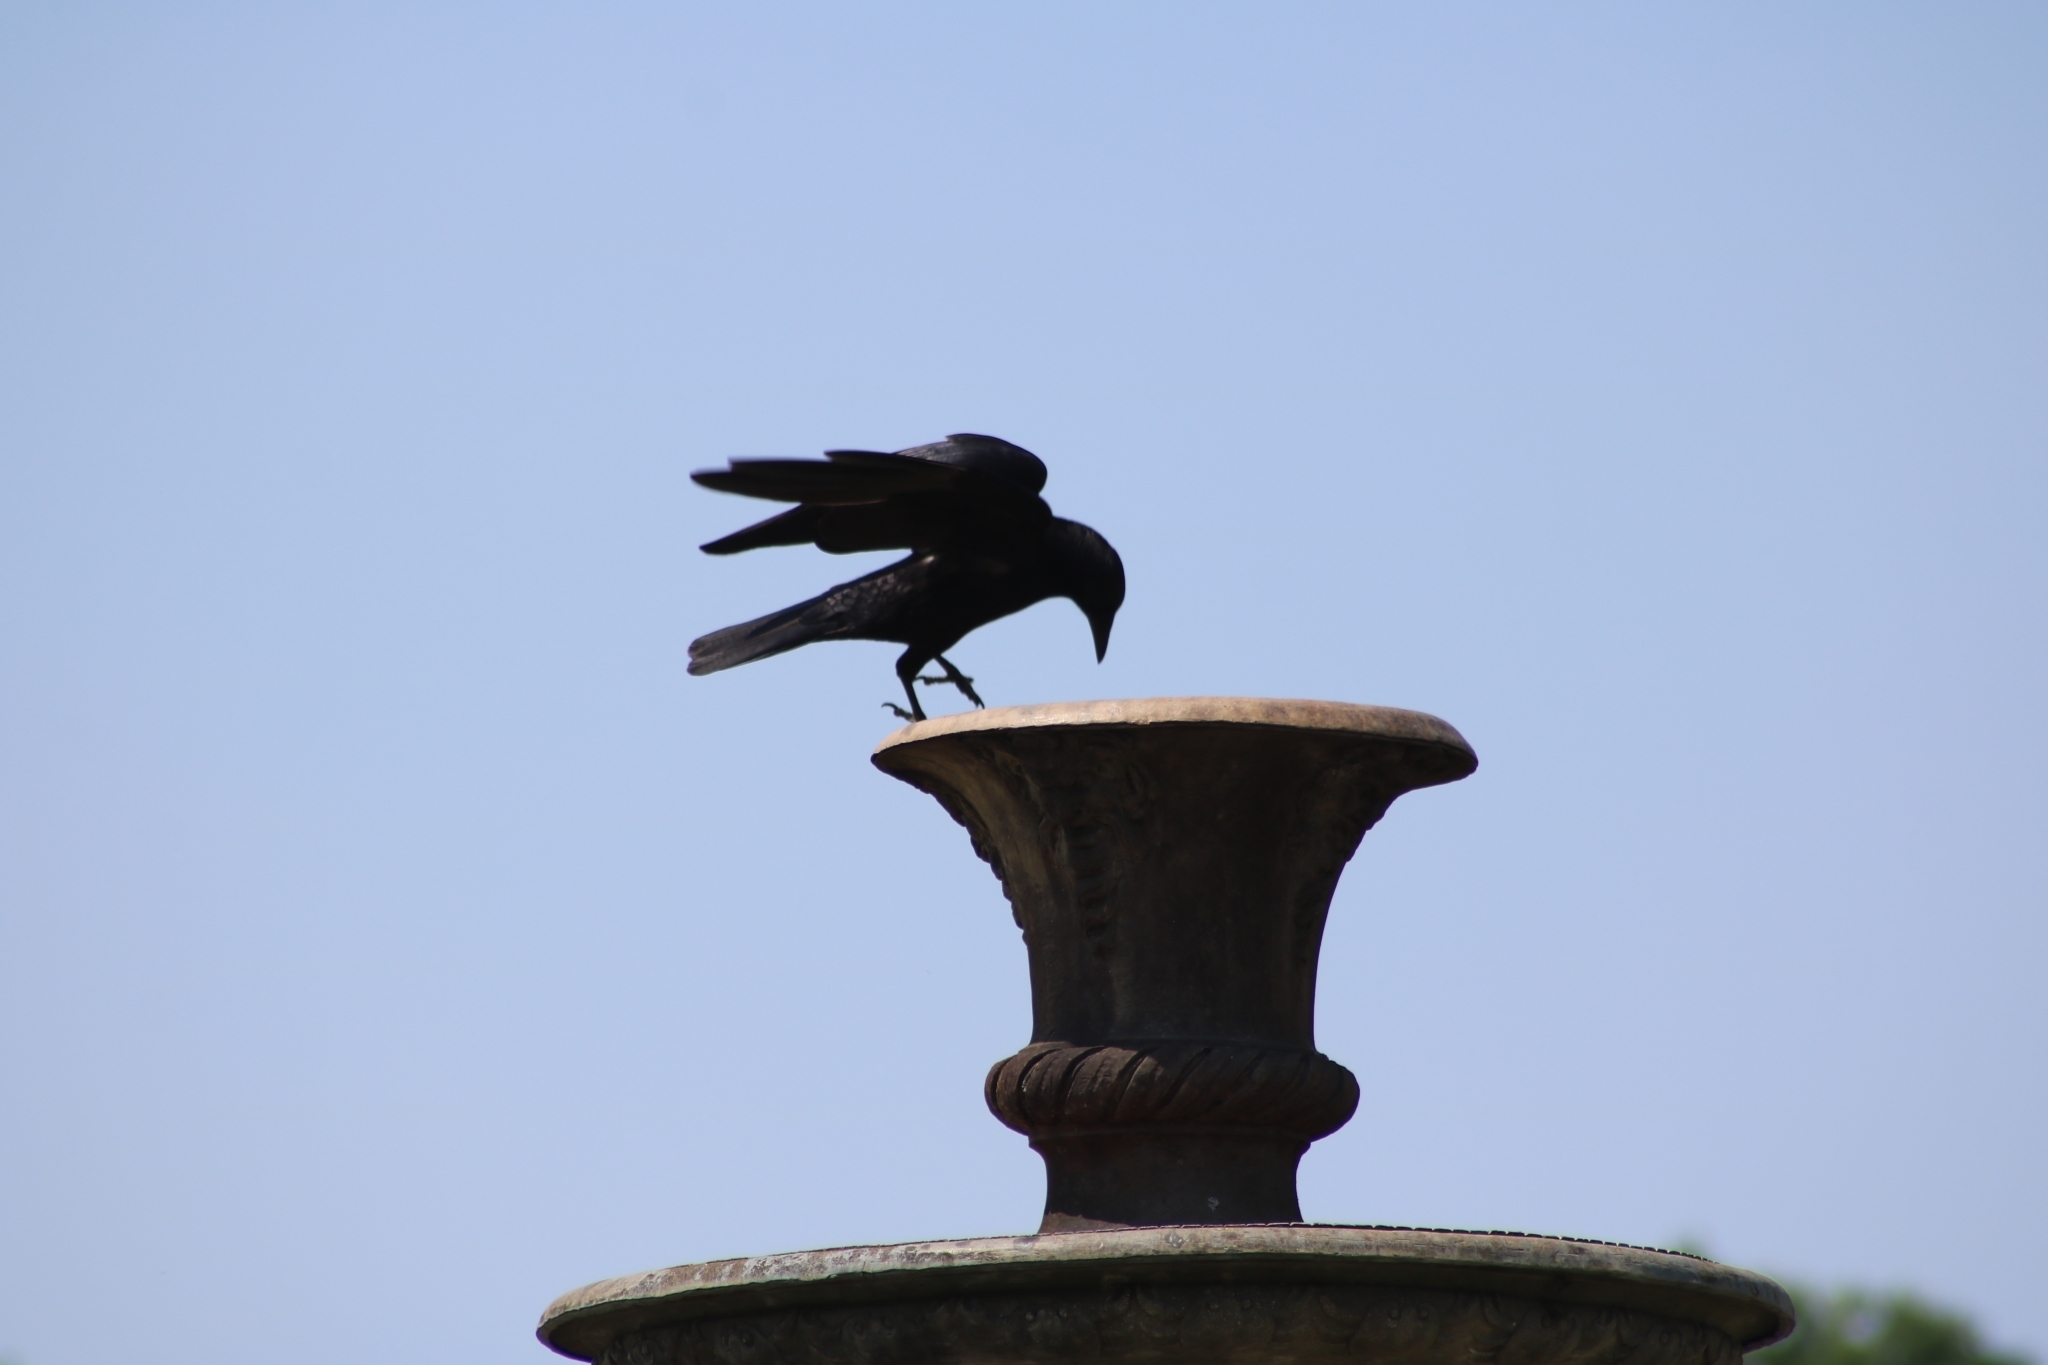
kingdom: Animalia
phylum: Chordata
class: Aves
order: Passeriformes
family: Corvidae
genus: Corvus
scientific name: Corvus corone
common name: Carrion crow
